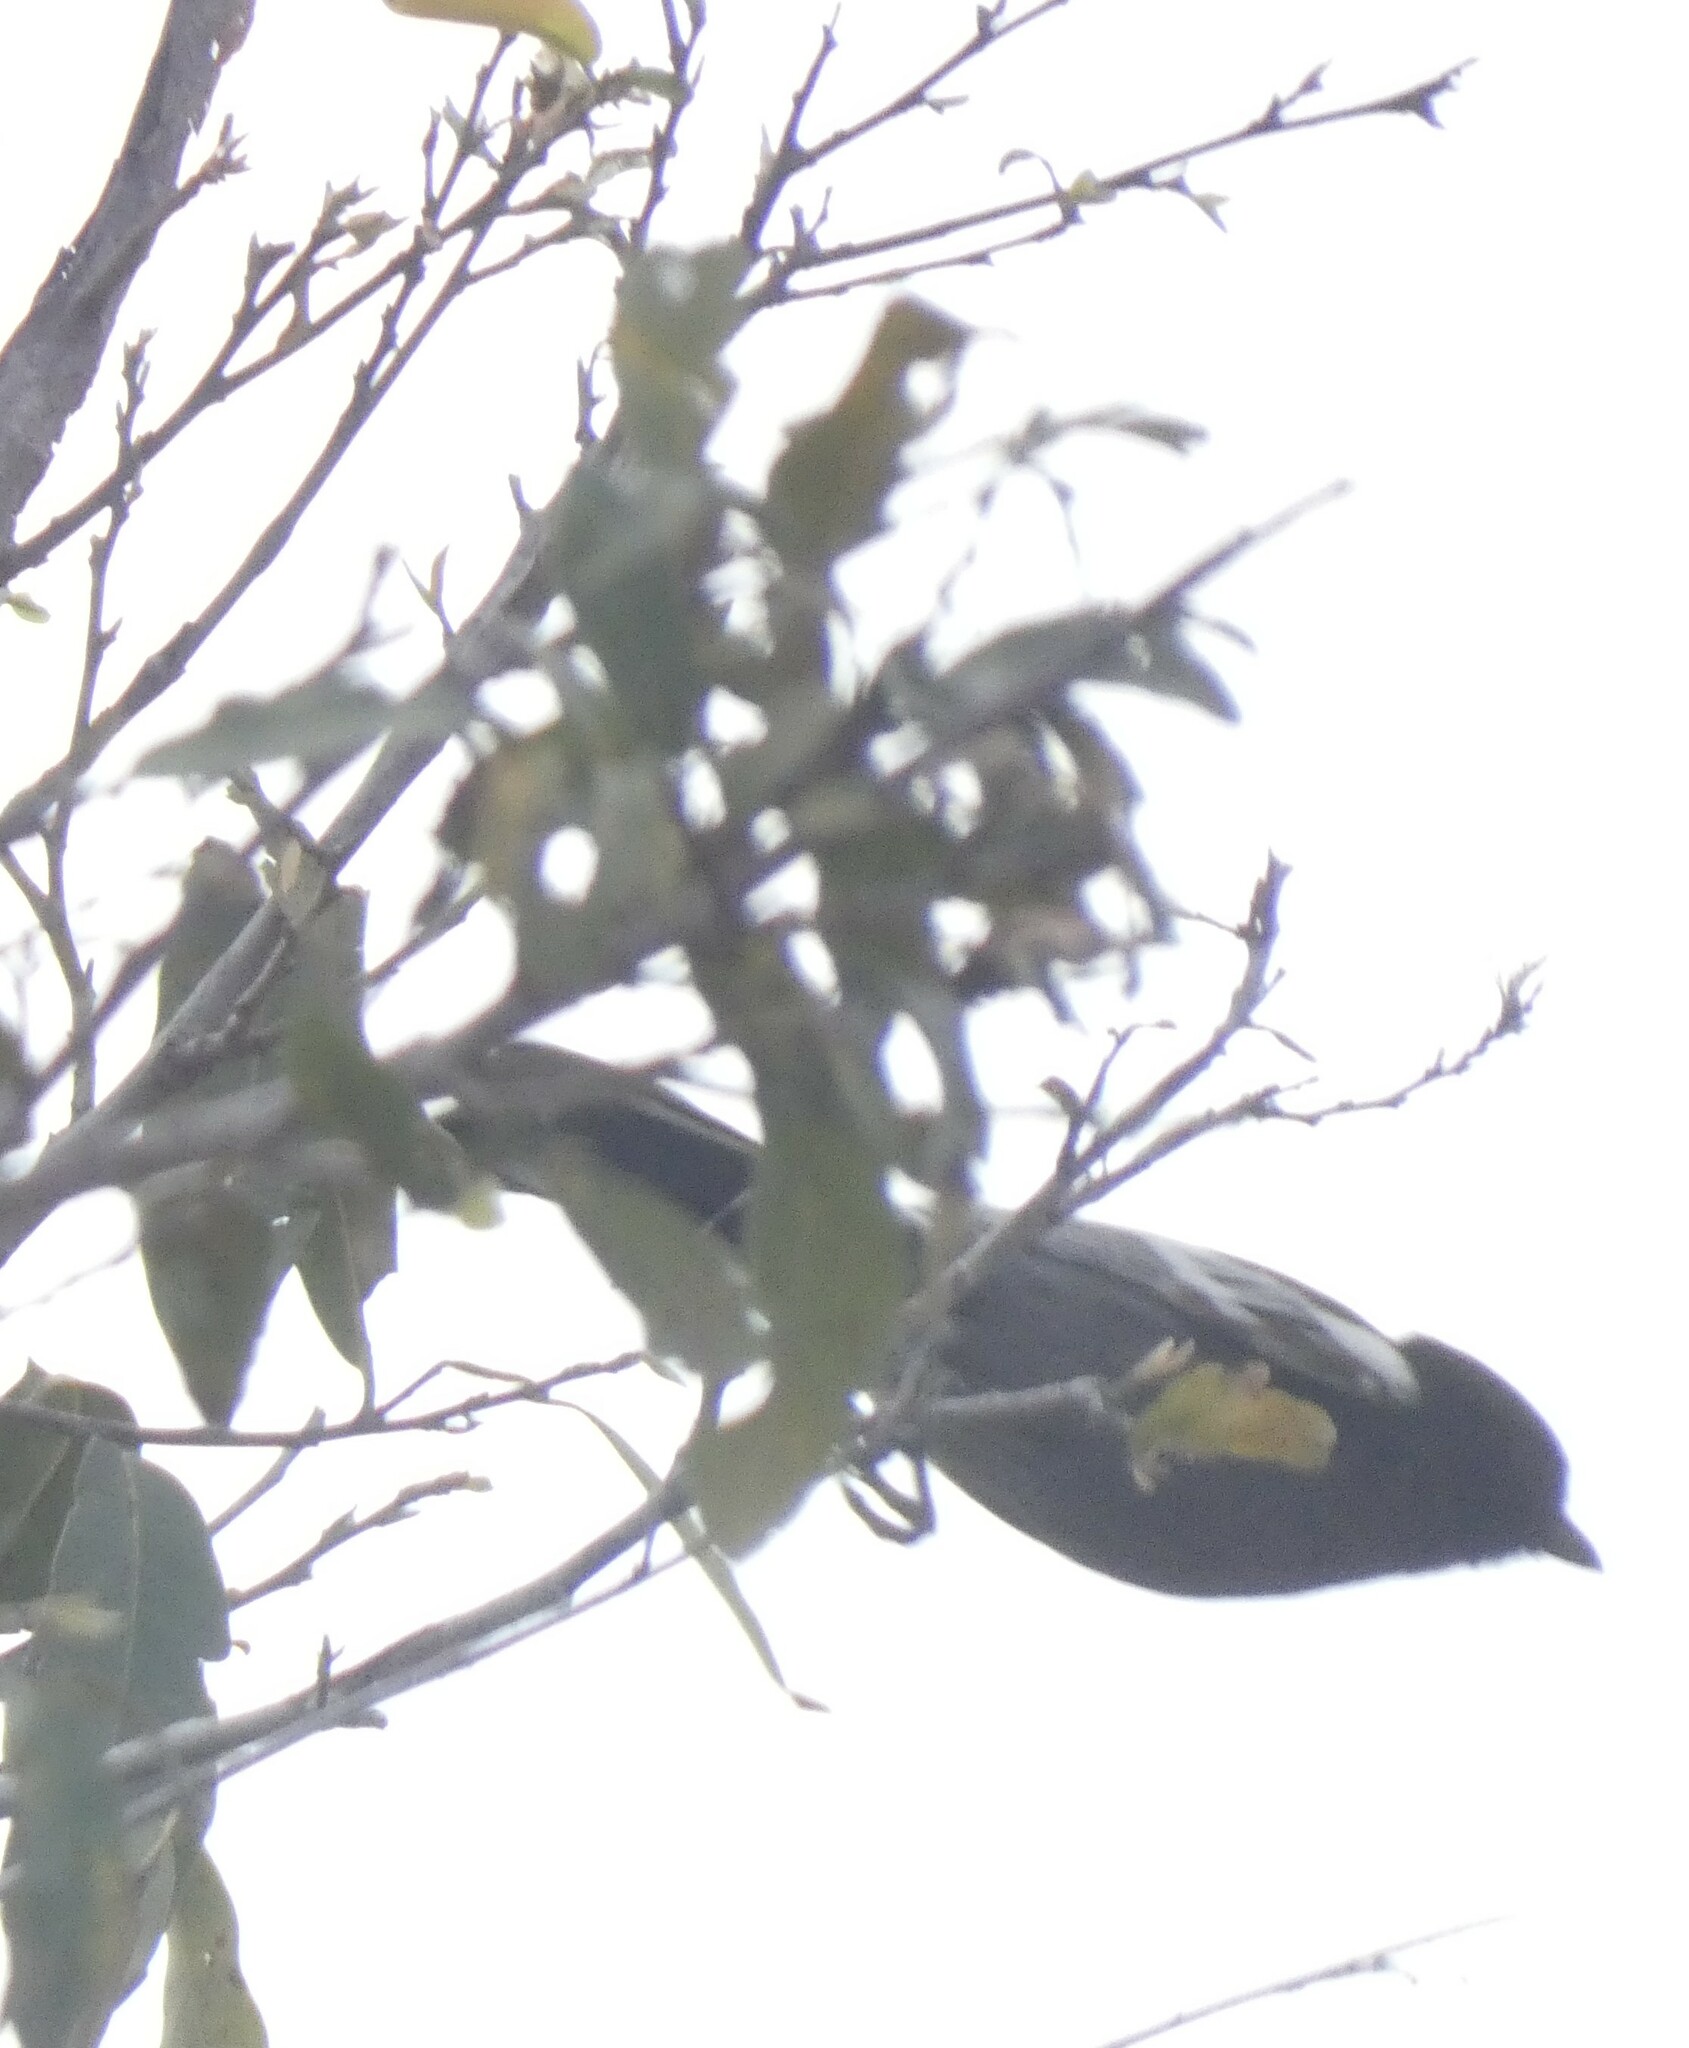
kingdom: Animalia
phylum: Chordata
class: Aves
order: Passeriformes
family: Paridae
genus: Parus
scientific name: Parus niger
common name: Southern black tit
